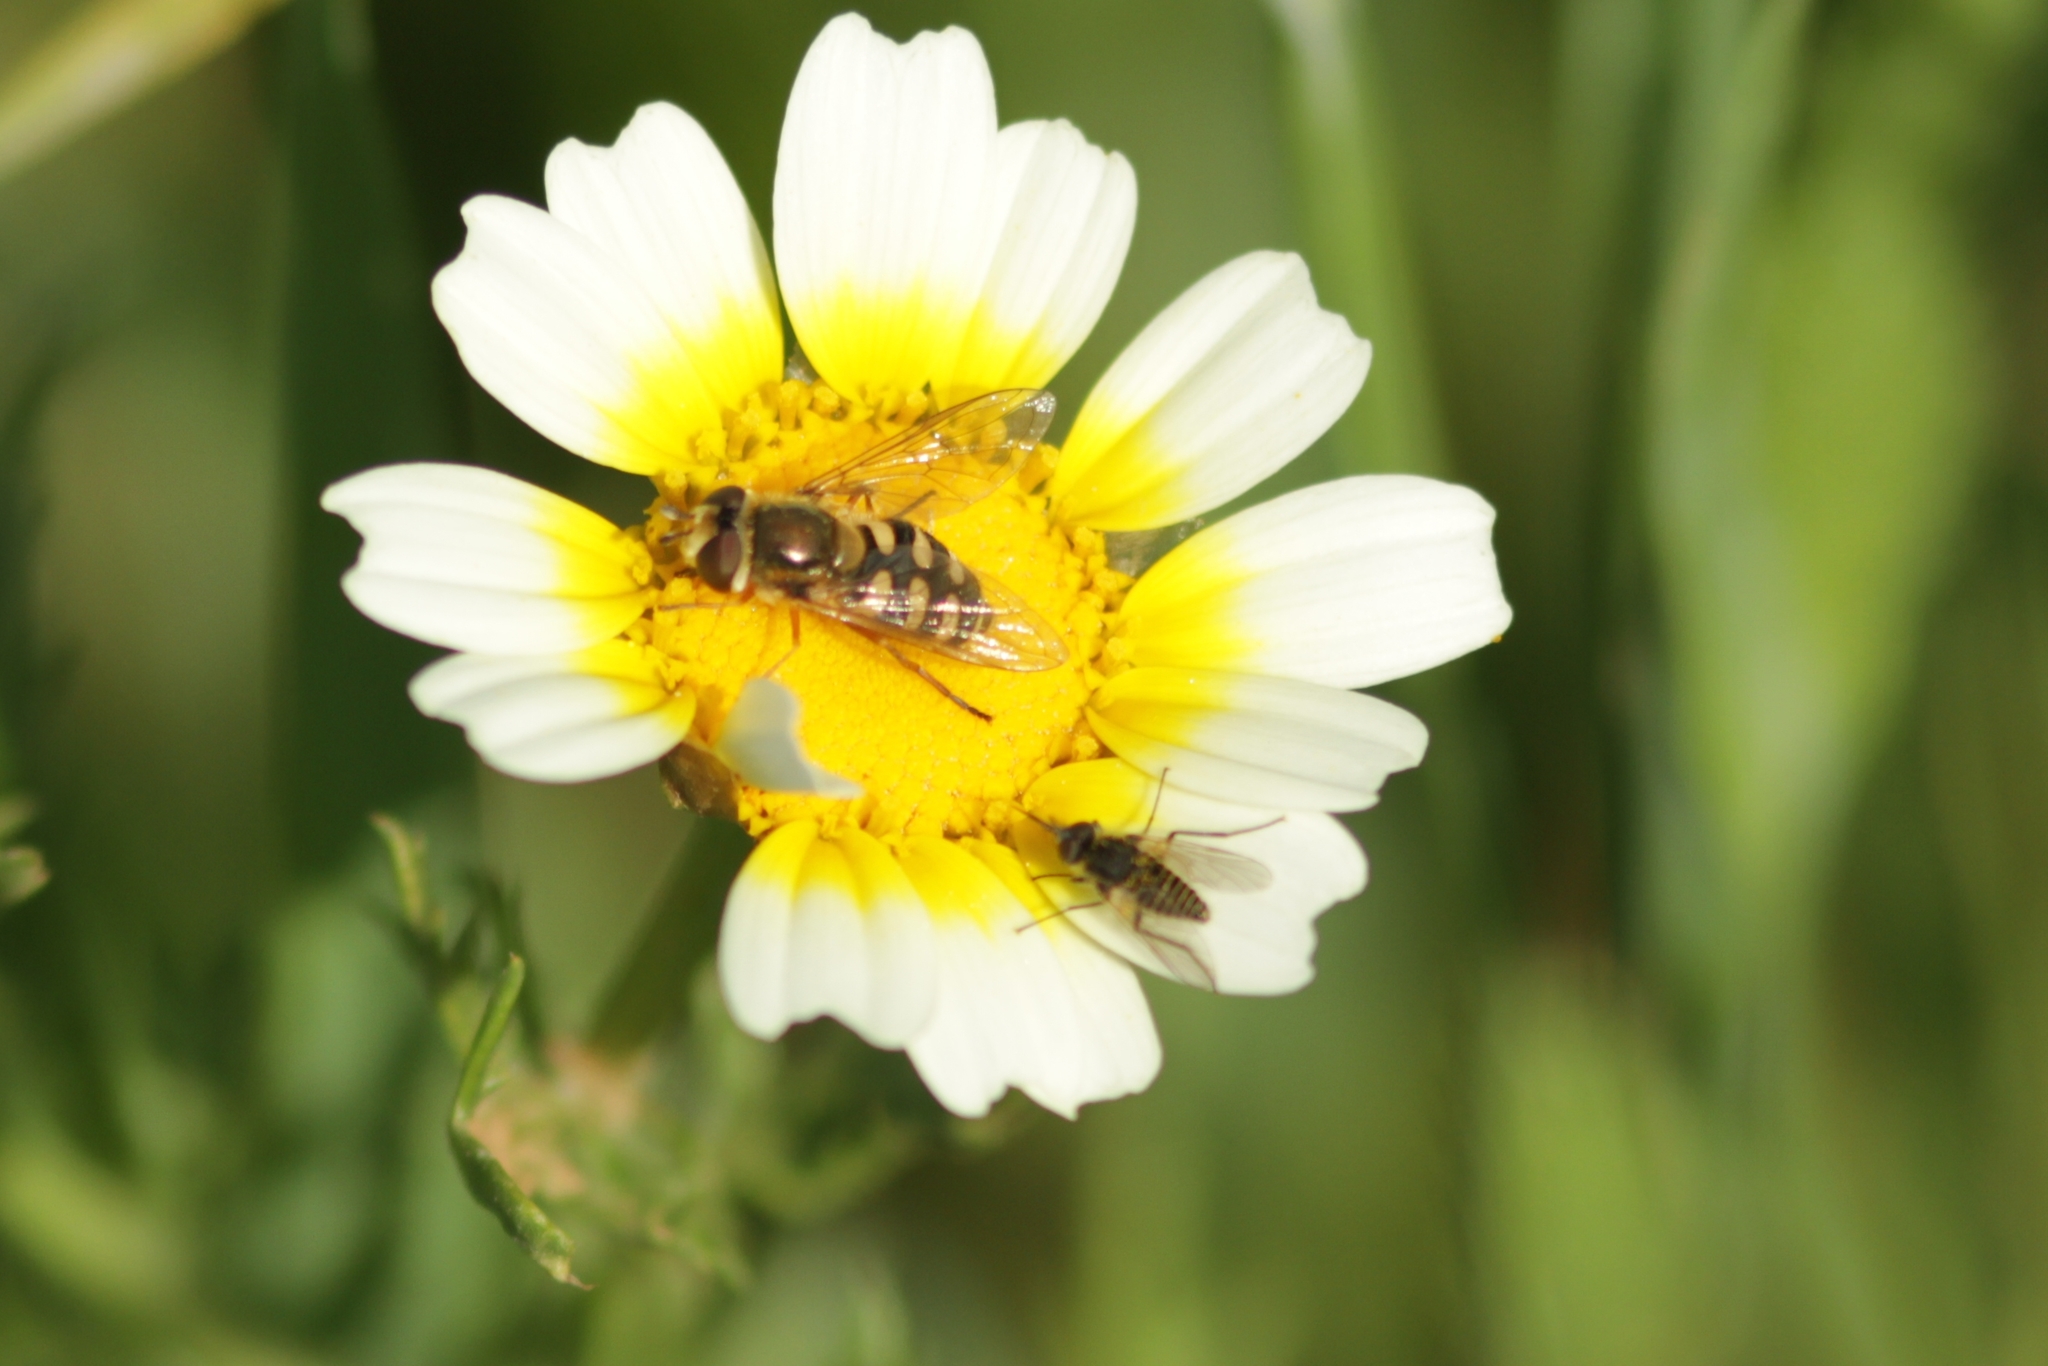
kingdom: Animalia
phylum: Arthropoda
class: Insecta
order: Diptera
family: Syrphidae
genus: Eupeodes
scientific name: Eupeodes corollae
